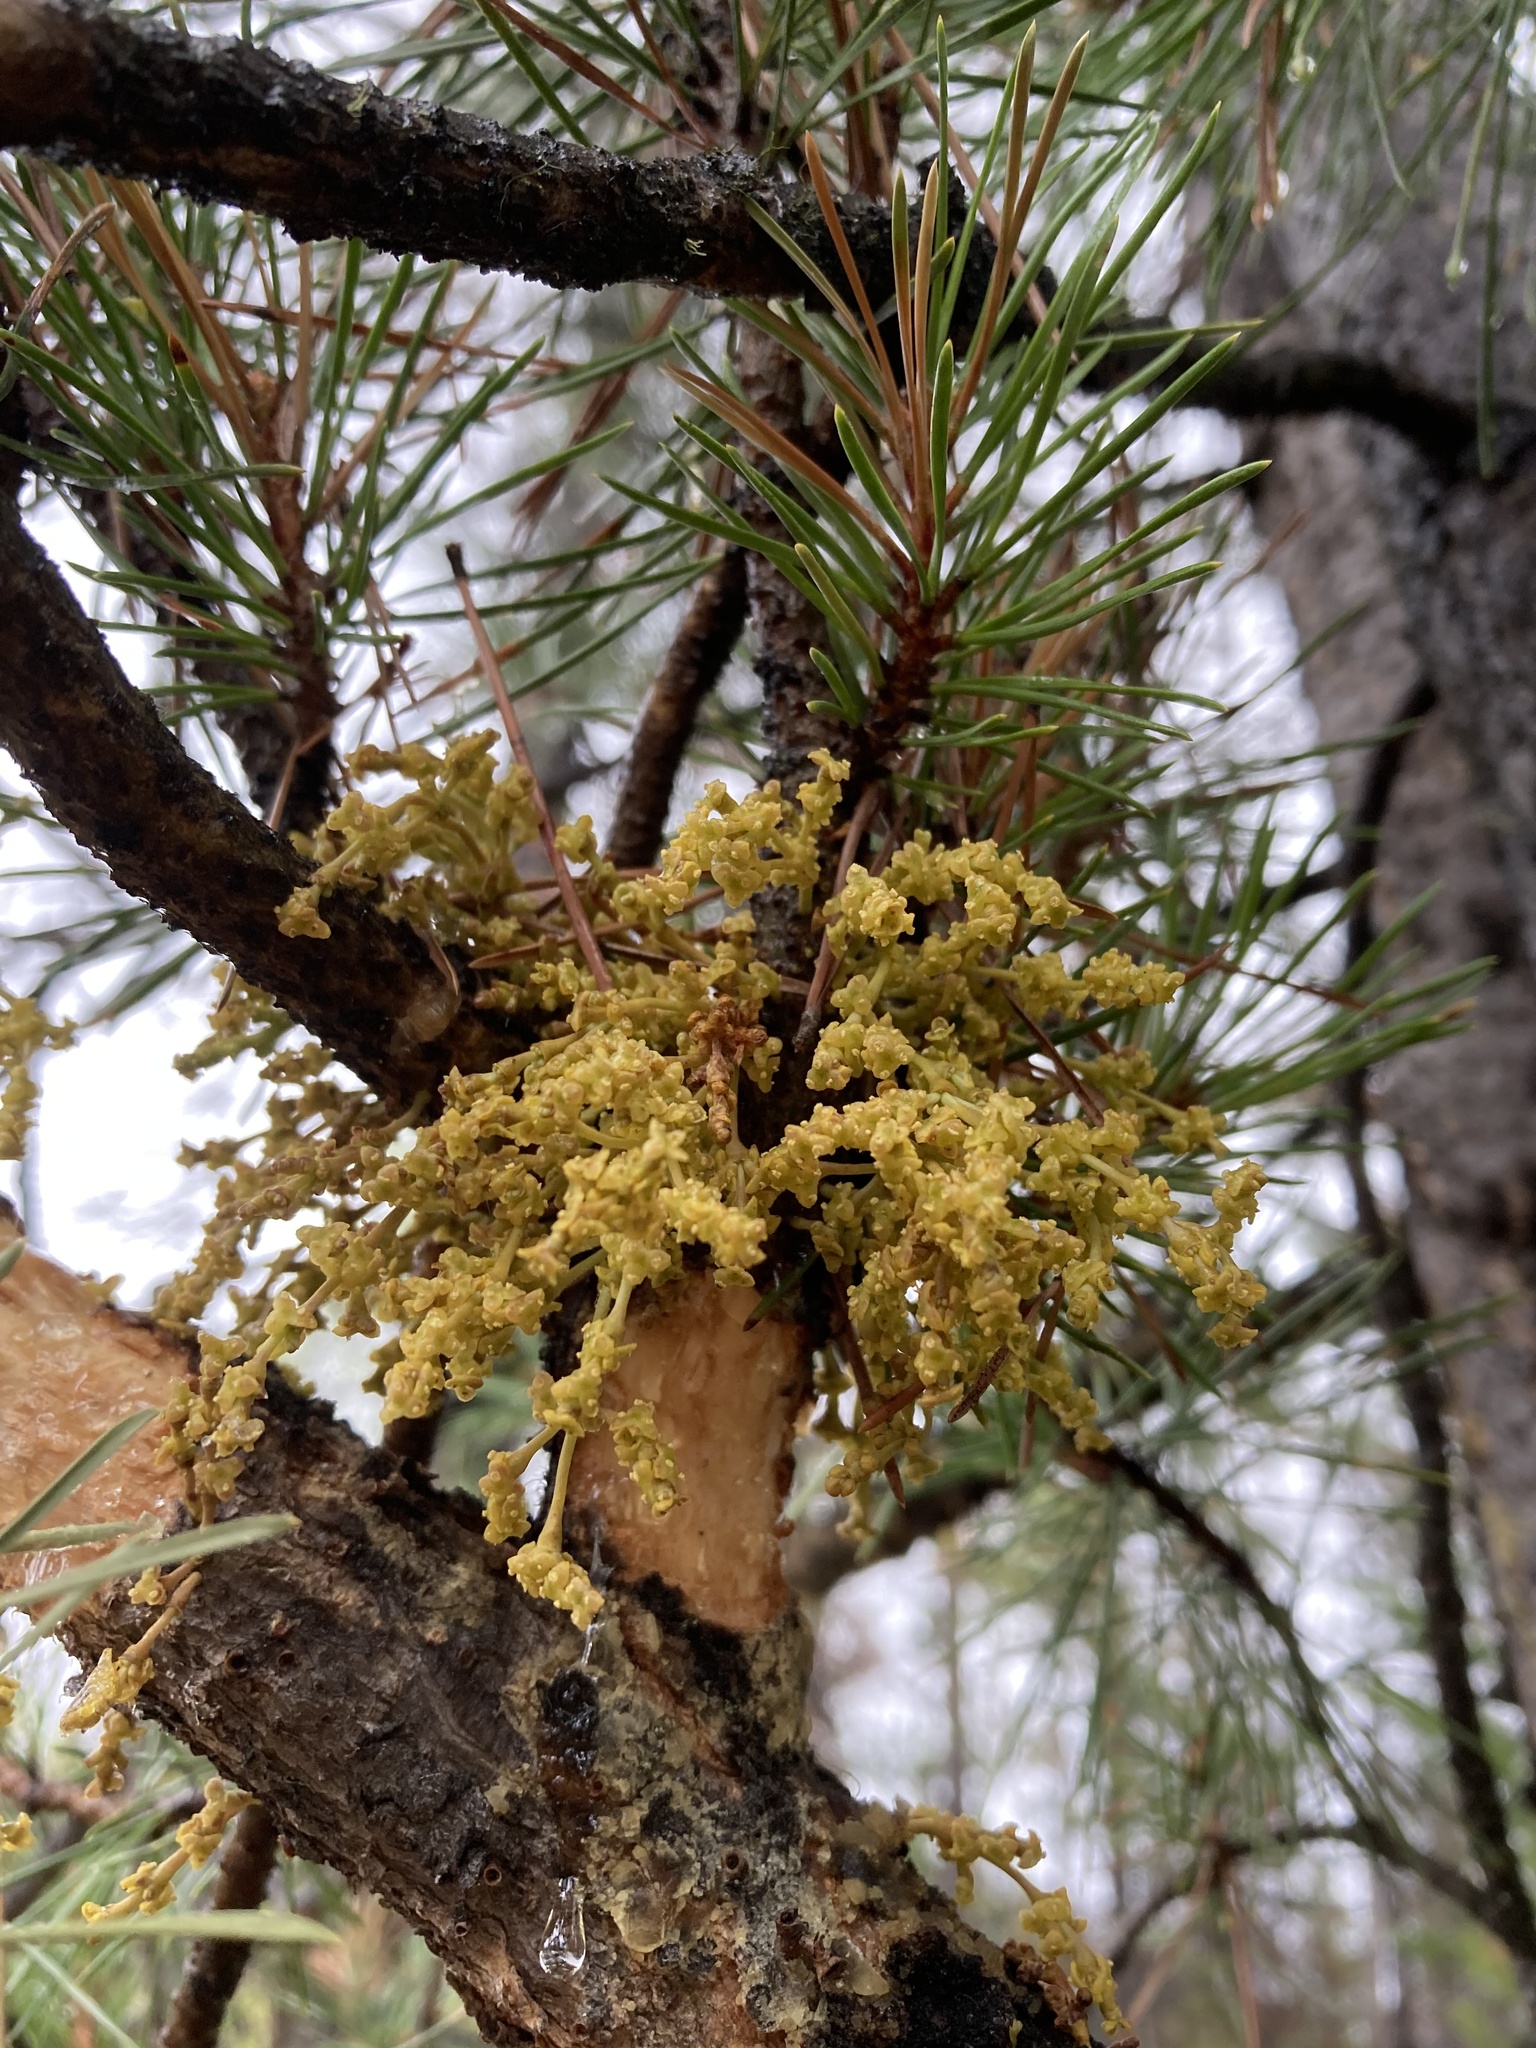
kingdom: Plantae
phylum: Tracheophyta
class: Magnoliopsida
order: Santalales
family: Viscaceae
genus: Arceuthobium
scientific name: Arceuthobium americanum
